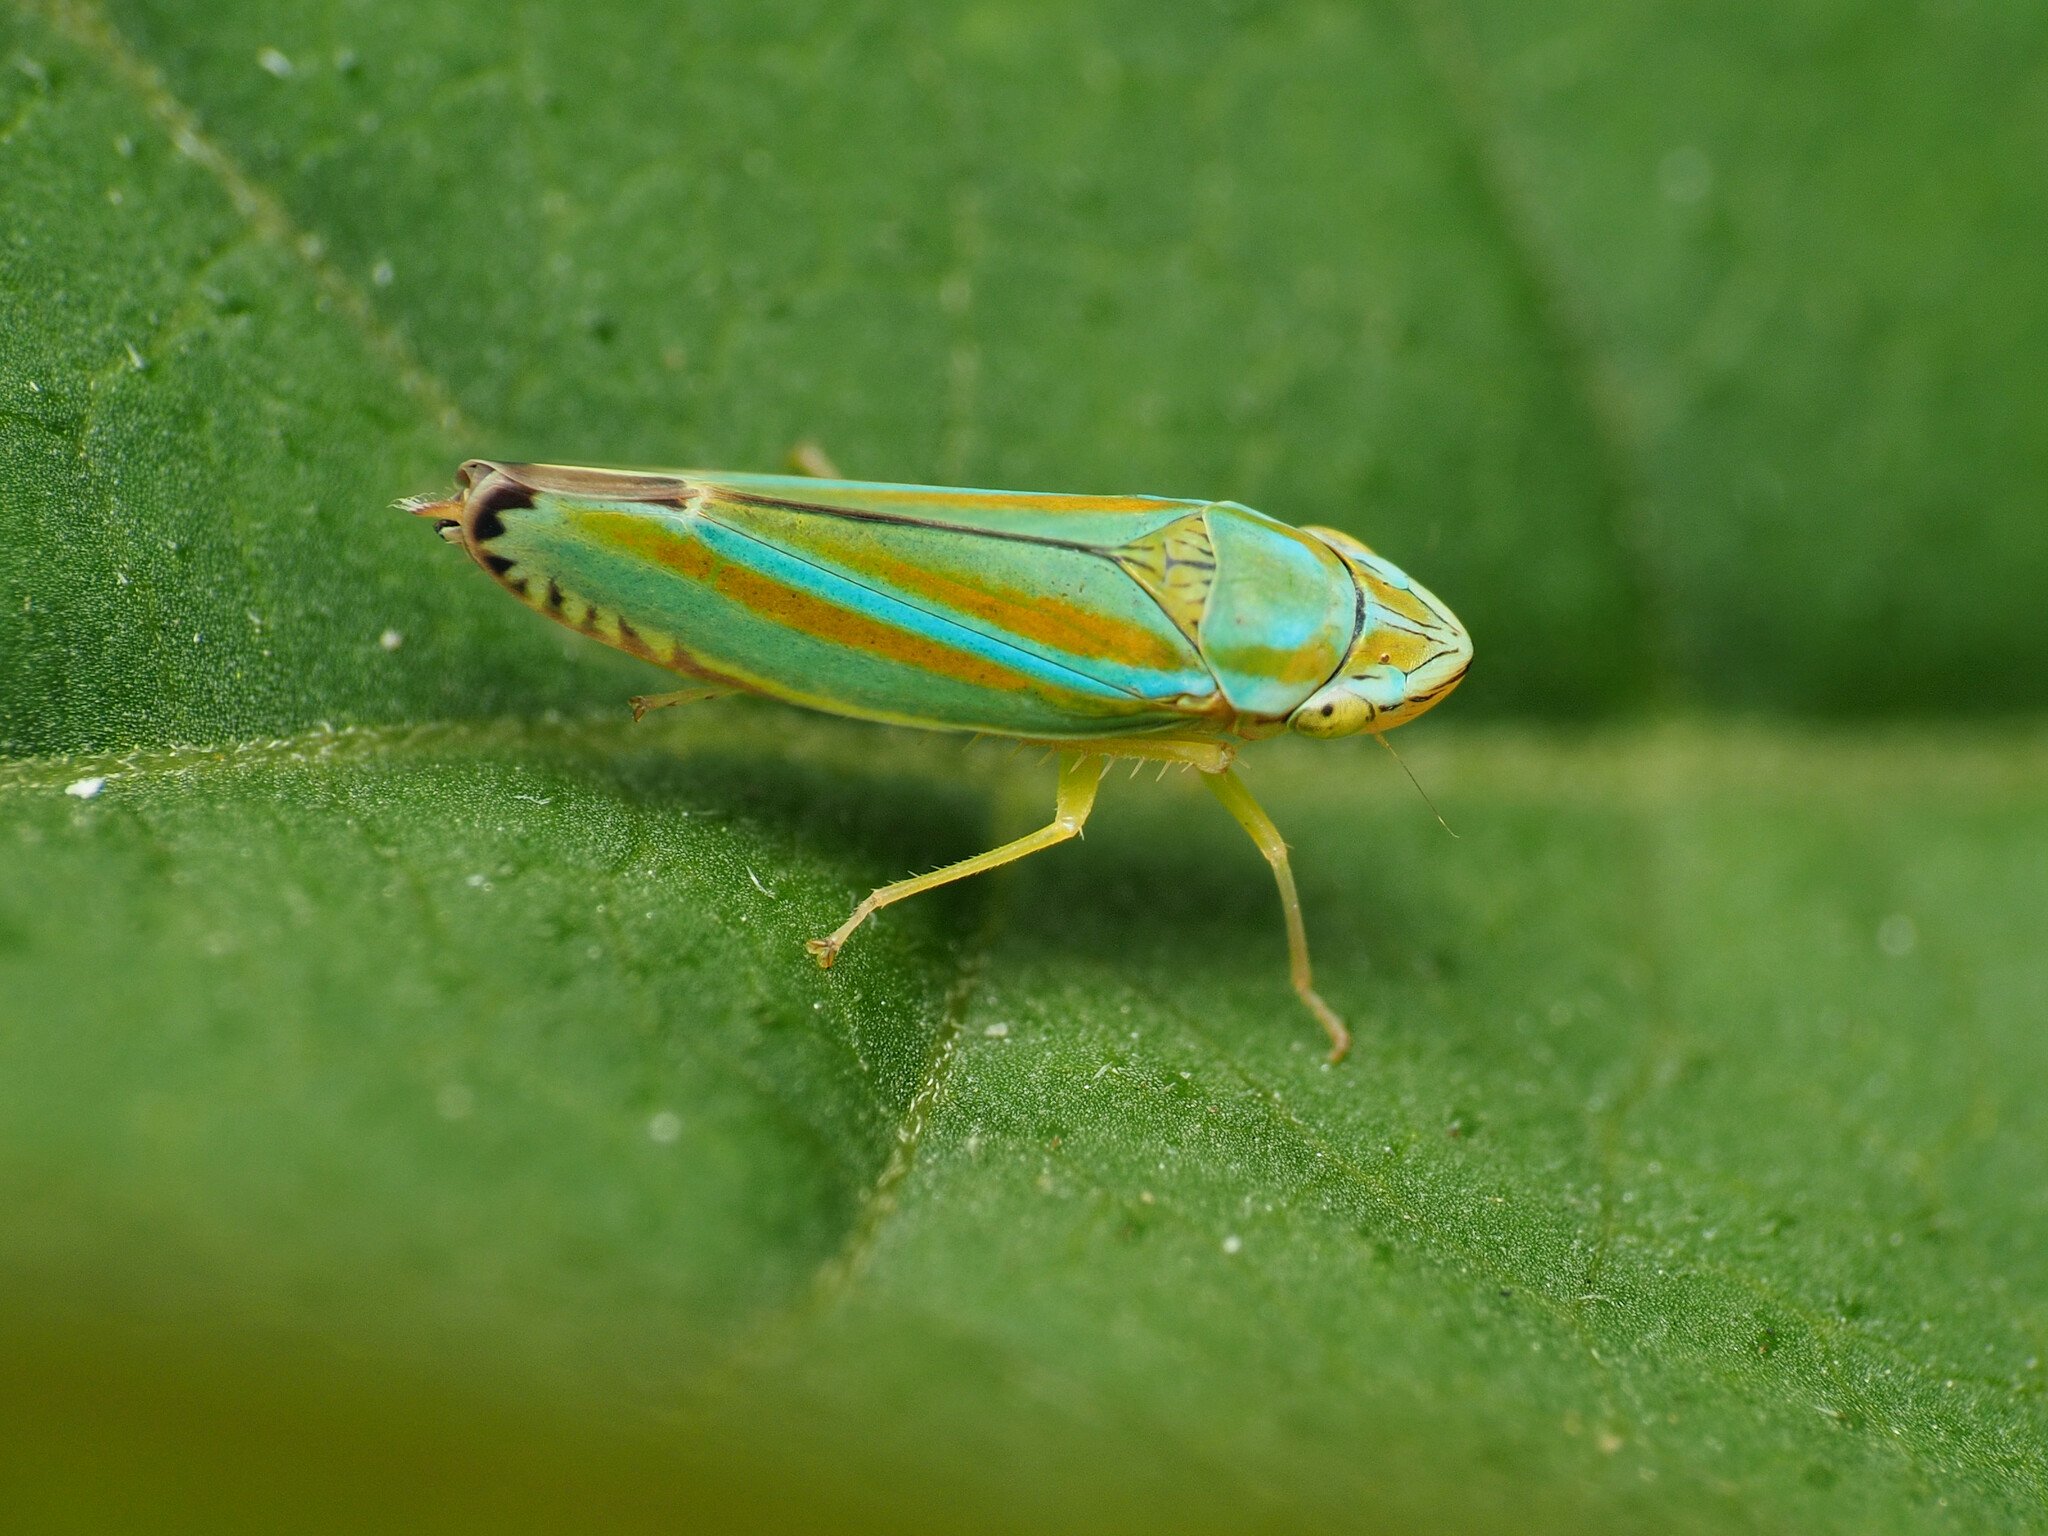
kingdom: Animalia
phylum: Arthropoda
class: Insecta
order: Hemiptera
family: Cicadellidae
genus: Graphocephala
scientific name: Graphocephala versuta
